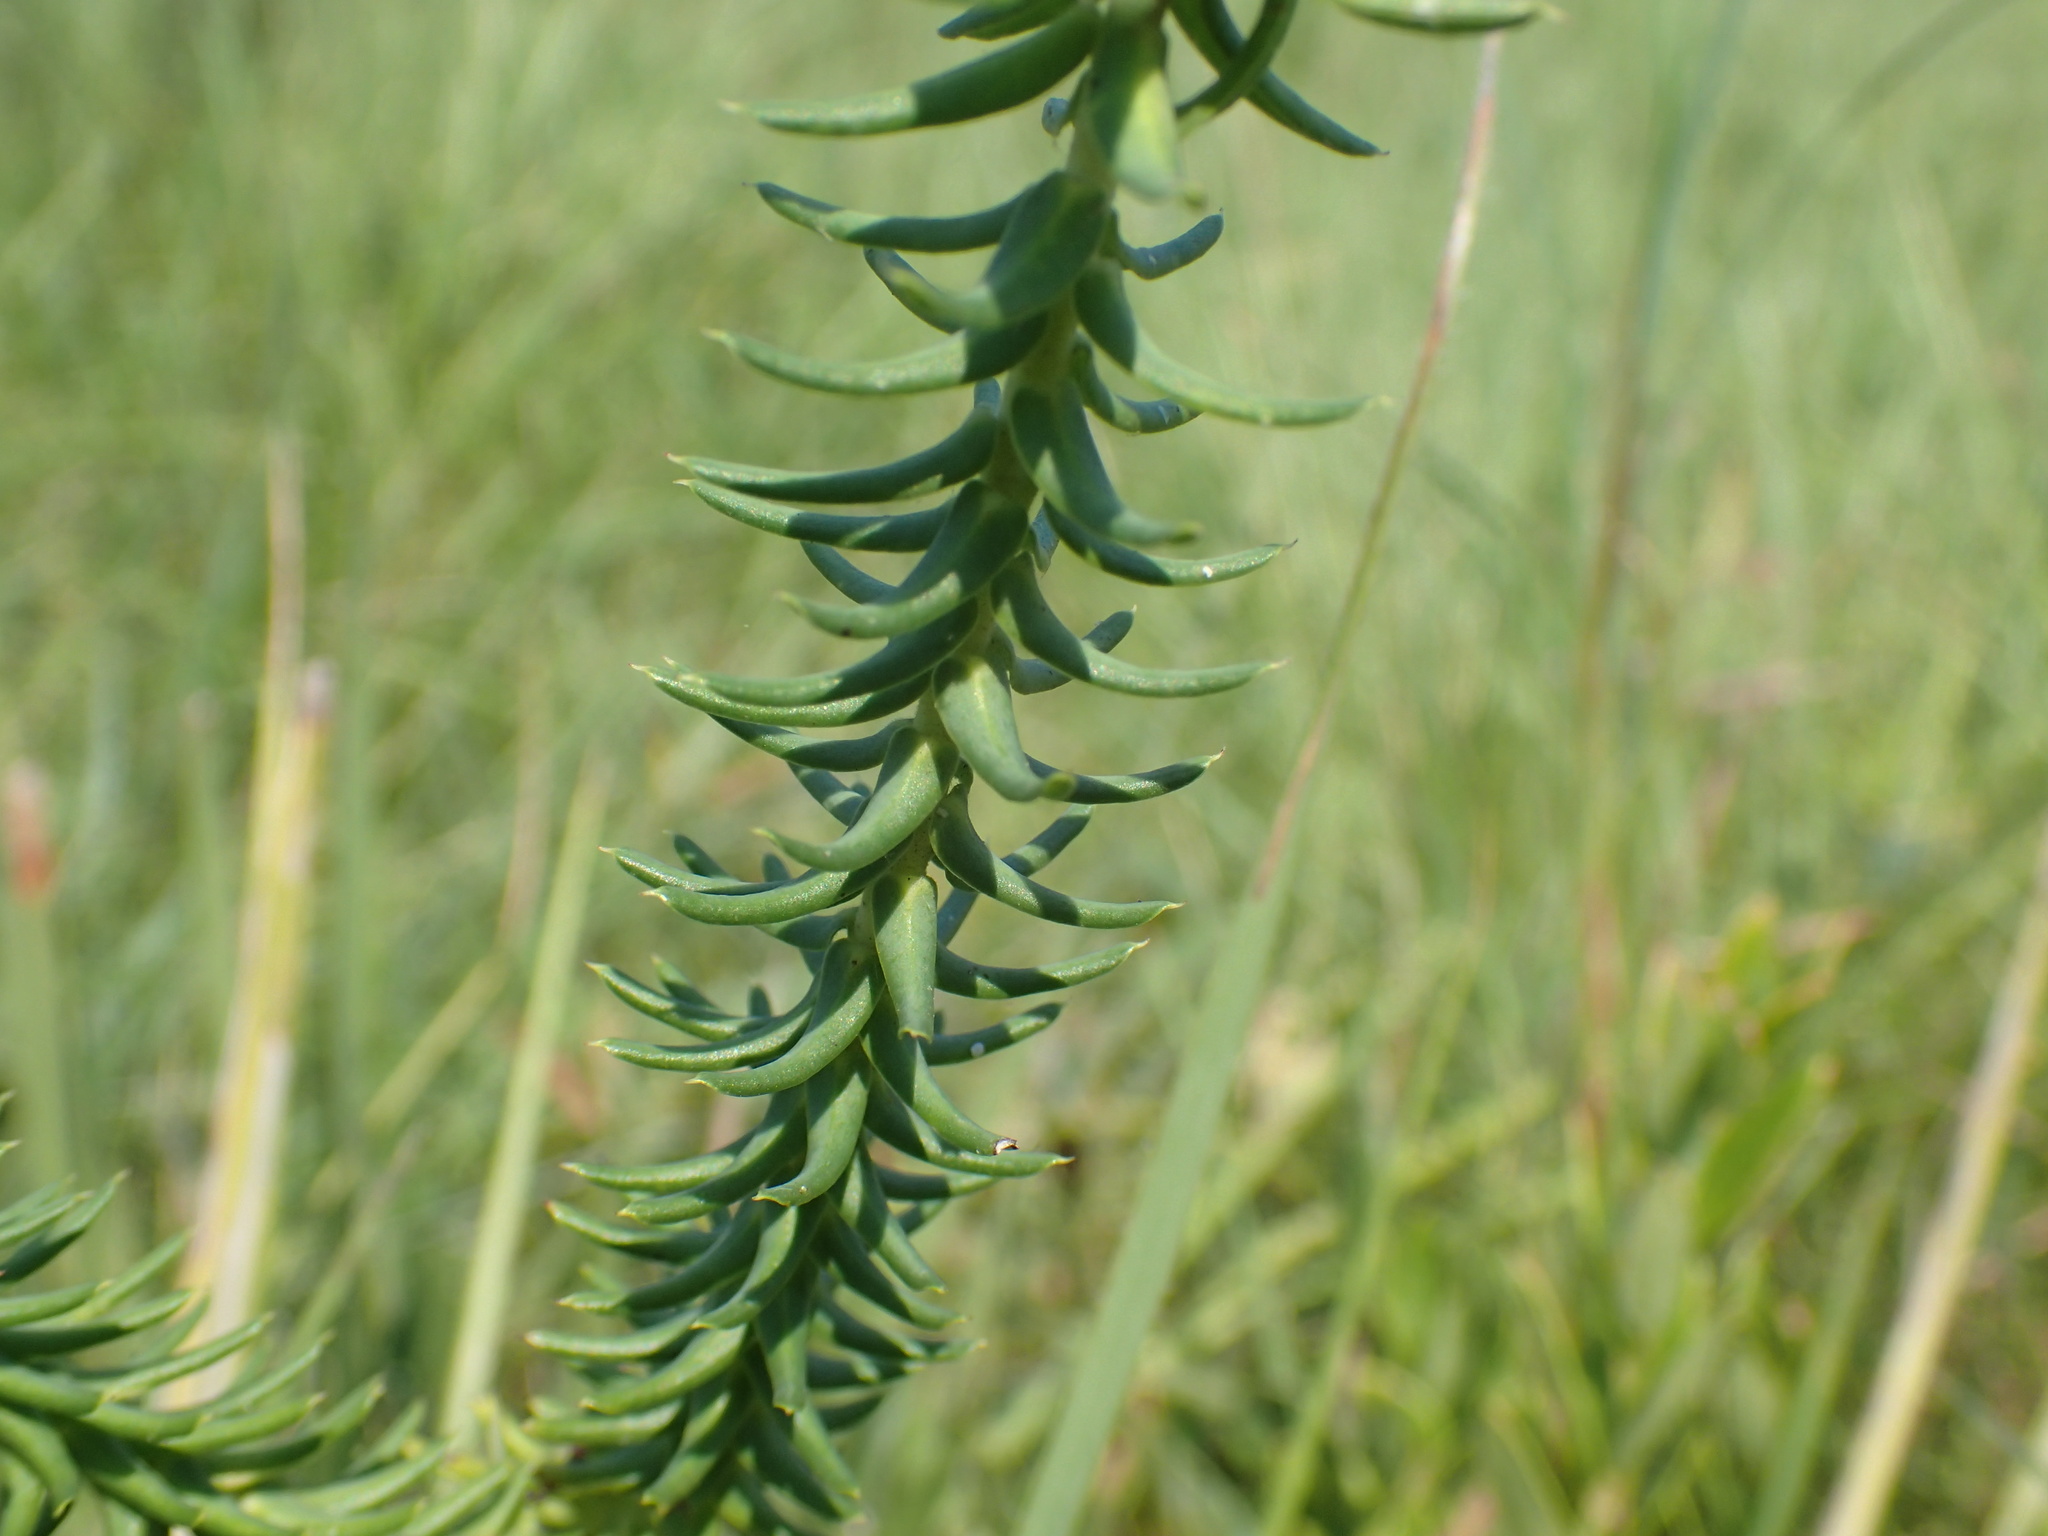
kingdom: Plantae
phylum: Tracheophyta
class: Magnoliopsida
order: Malpighiales
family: Euphorbiaceae
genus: Euphorbia
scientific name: Euphorbia natalensis
